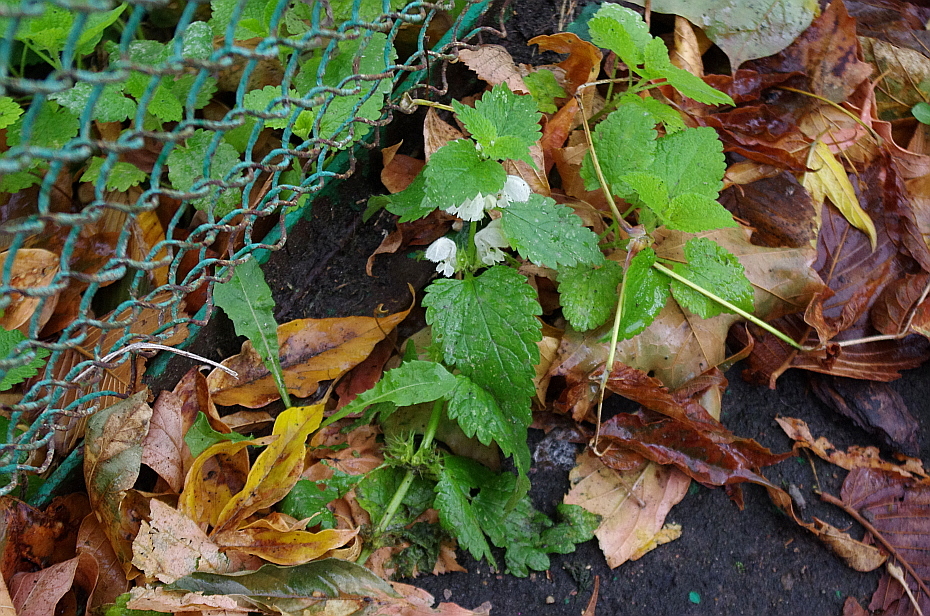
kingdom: Plantae
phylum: Tracheophyta
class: Magnoliopsida
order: Lamiales
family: Lamiaceae
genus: Lamium
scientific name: Lamium album
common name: White dead-nettle
